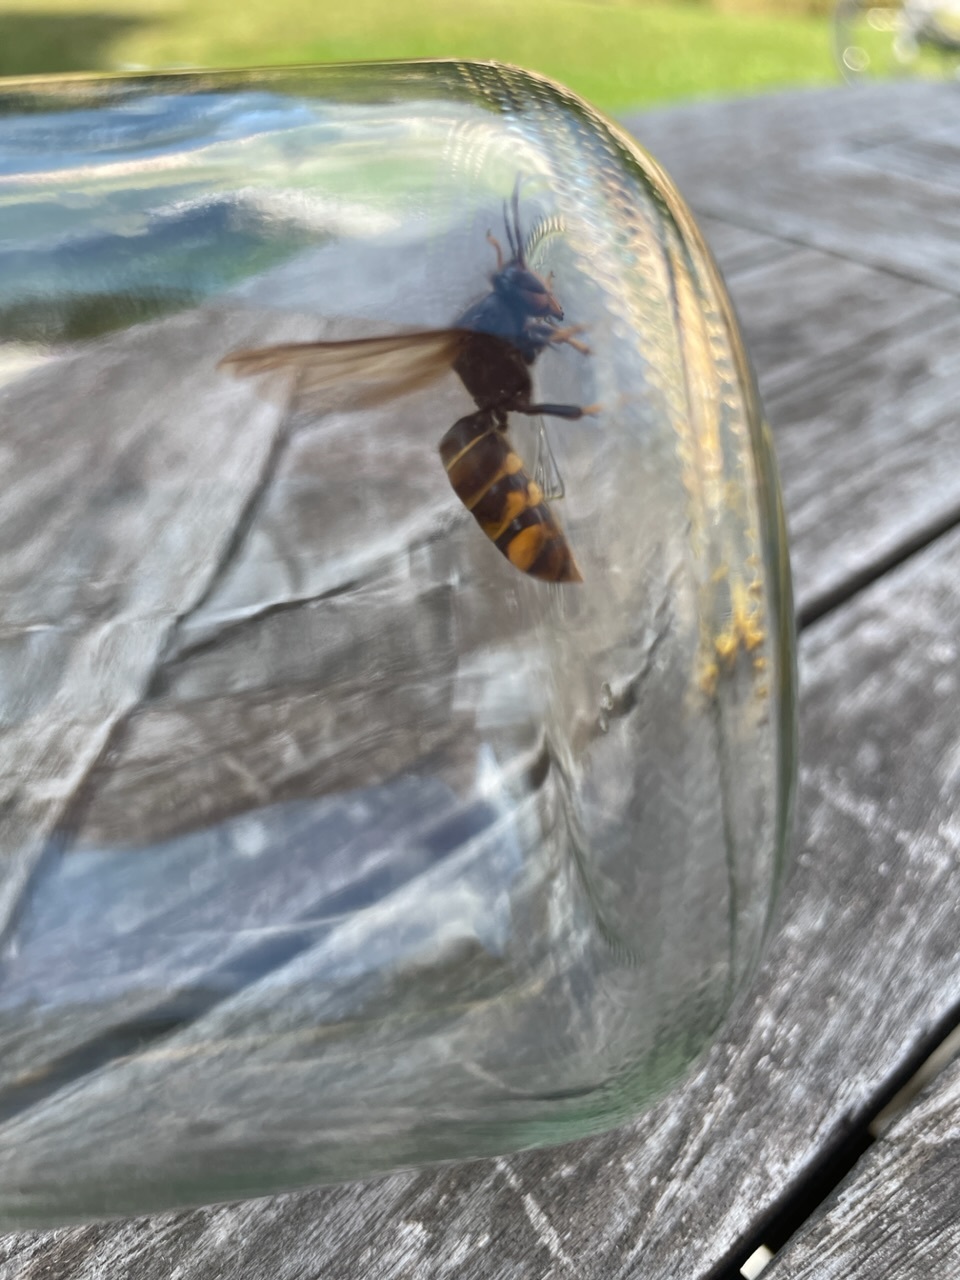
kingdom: Animalia
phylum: Arthropoda
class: Insecta
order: Hymenoptera
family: Vespidae
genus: Vespa
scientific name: Vespa velutina
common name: Asian hornet
